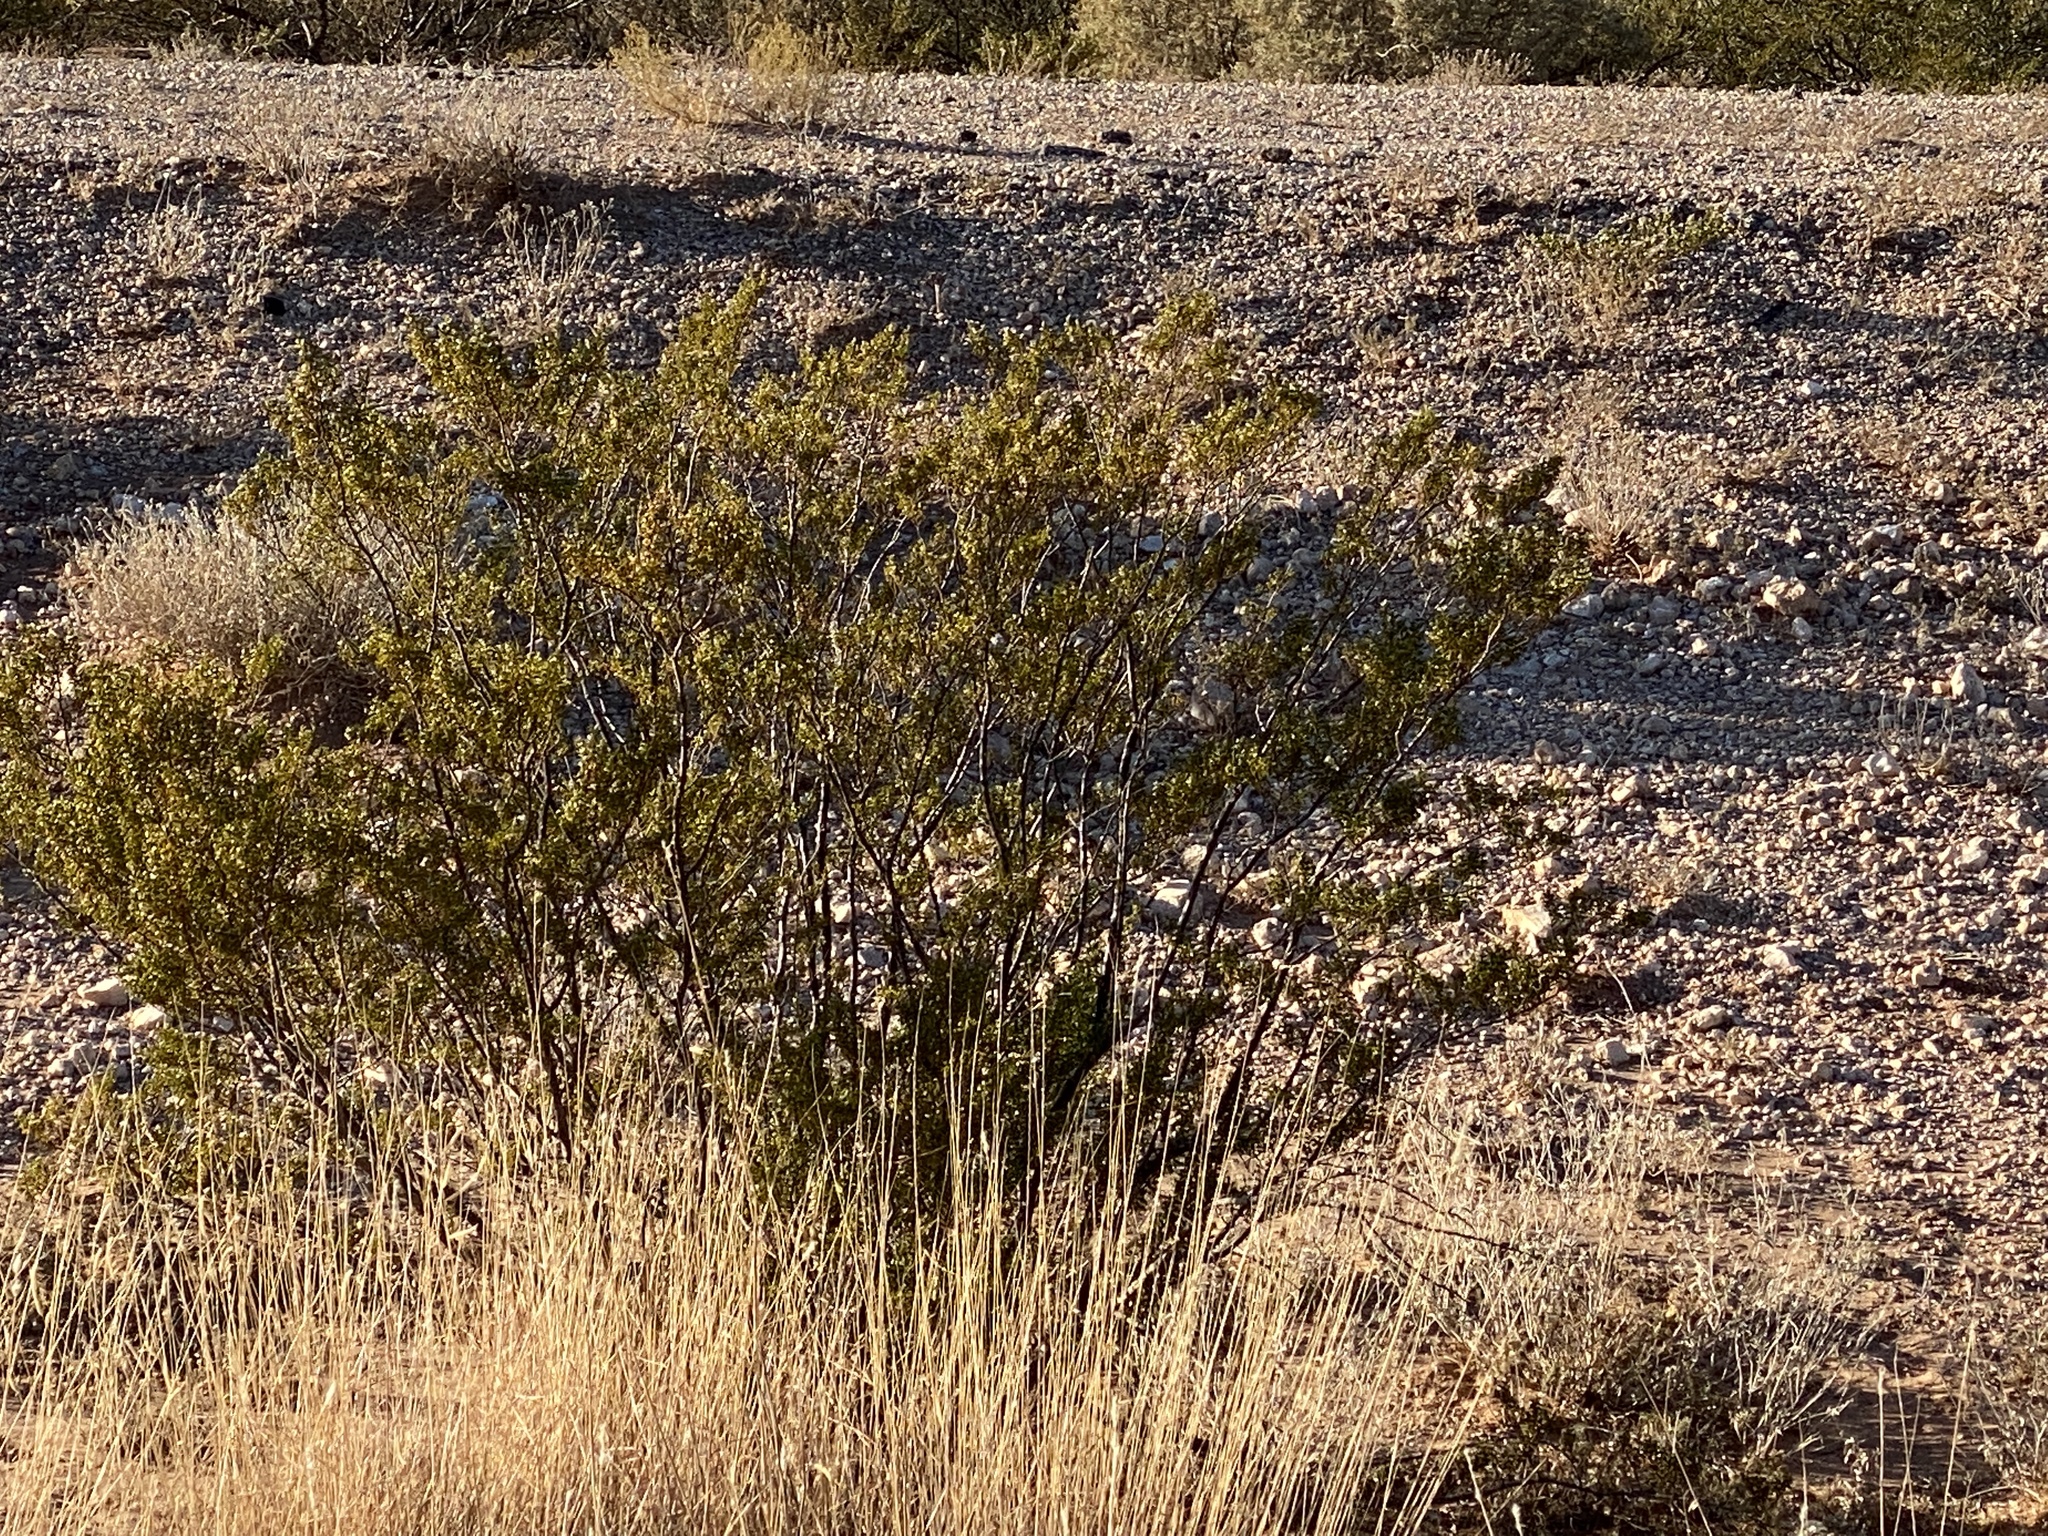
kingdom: Plantae
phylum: Tracheophyta
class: Magnoliopsida
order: Zygophyllales
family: Zygophyllaceae
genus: Larrea
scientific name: Larrea tridentata
